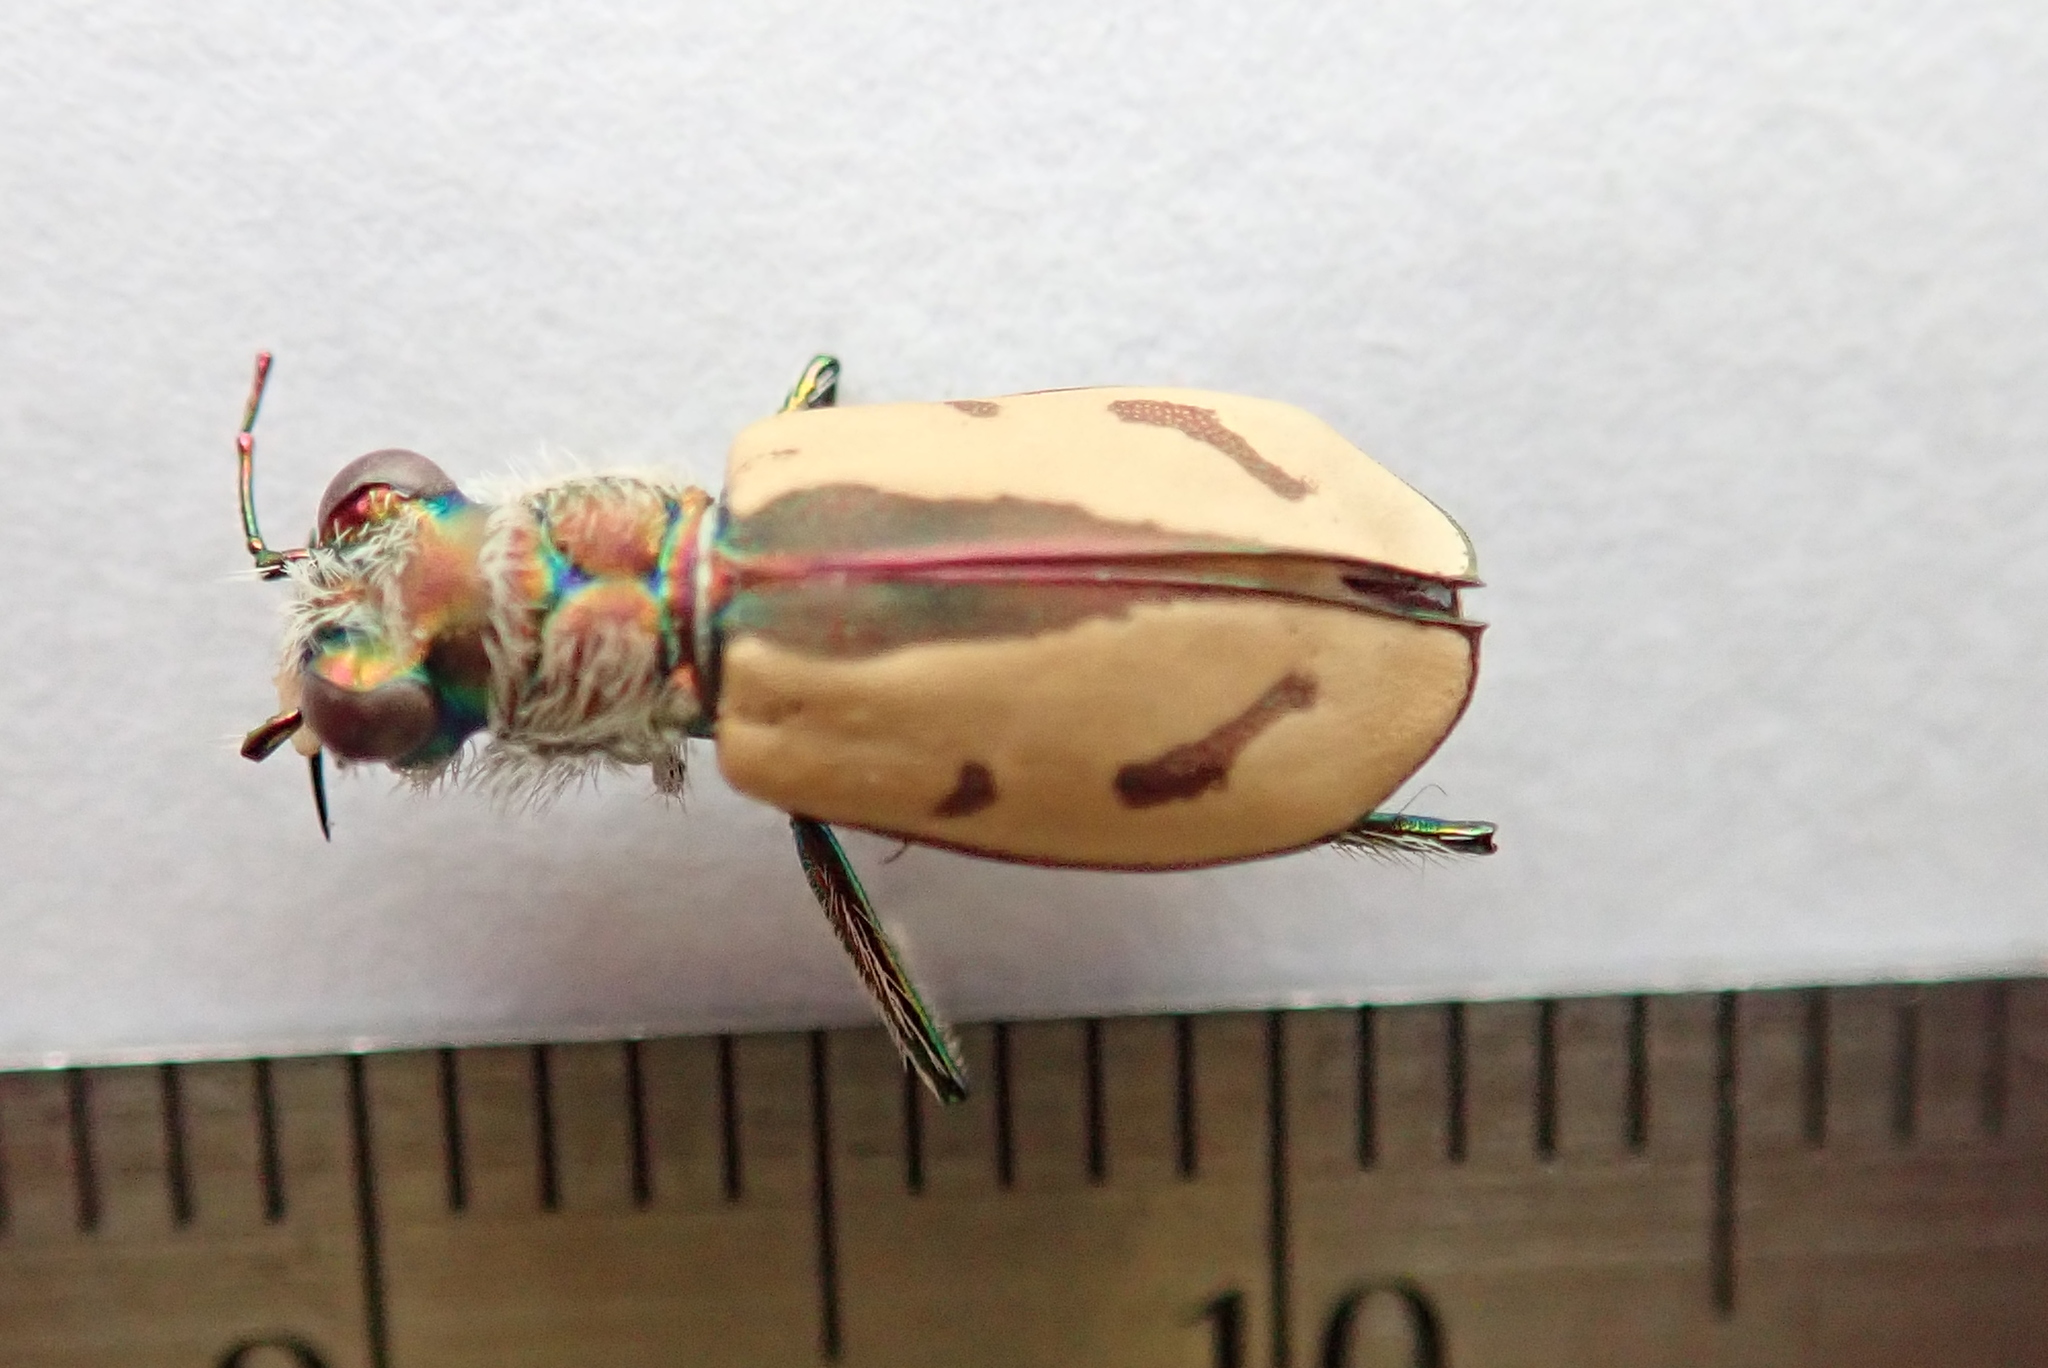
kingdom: Animalia
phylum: Arthropoda
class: Insecta
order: Coleoptera
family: Carabidae
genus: Cicindela
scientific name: Cicindela limbata
